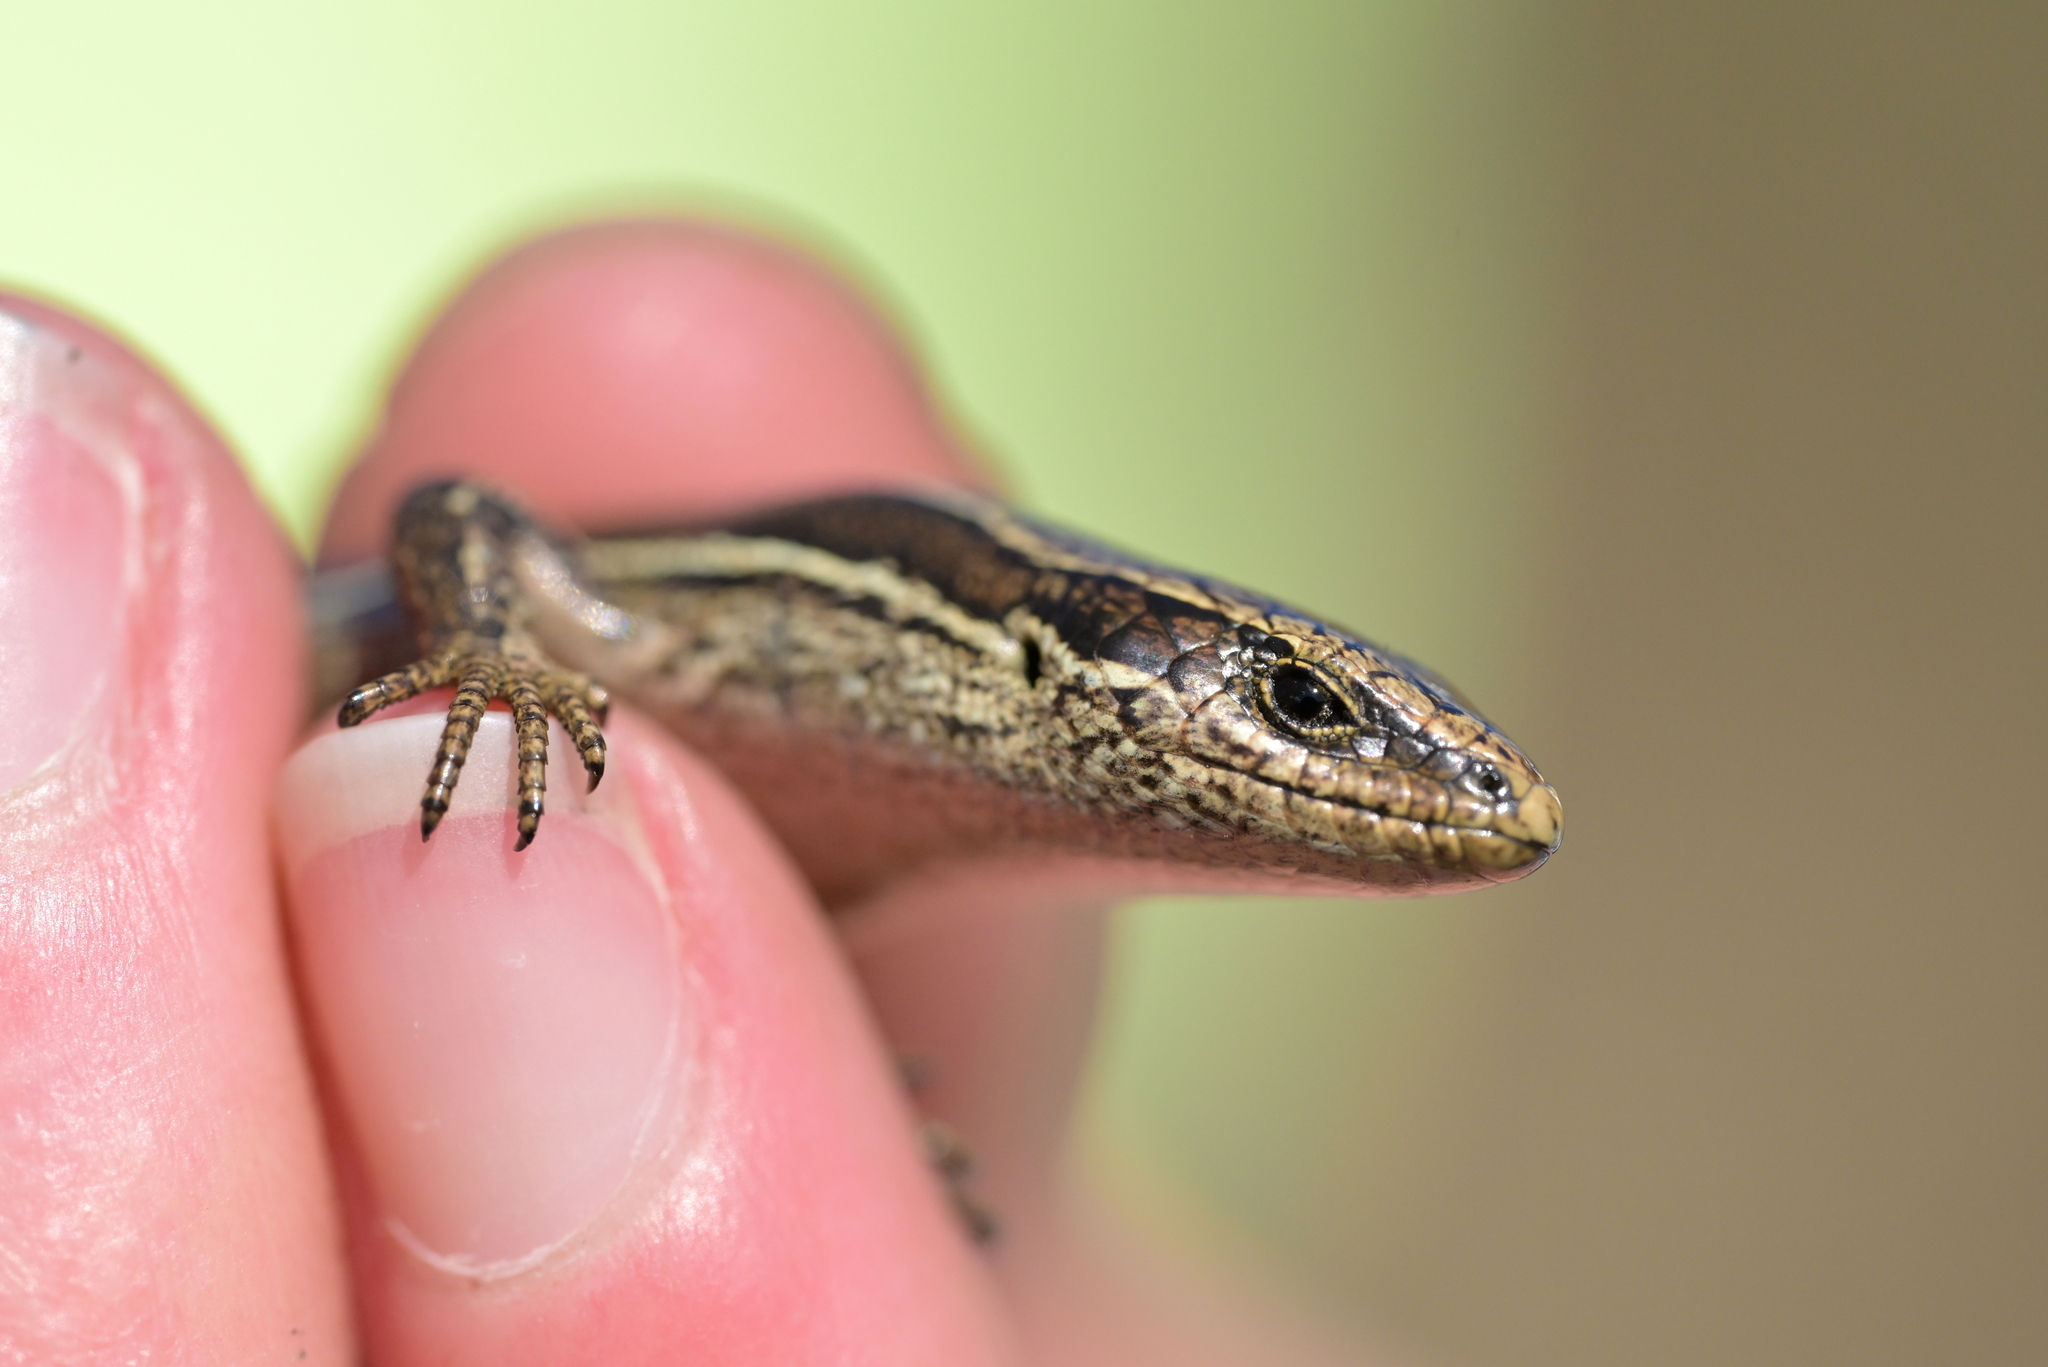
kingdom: Animalia
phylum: Chordata
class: Squamata
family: Scincidae
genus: Oligosoma
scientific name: Oligosoma polychroma
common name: Common new zealand skink
